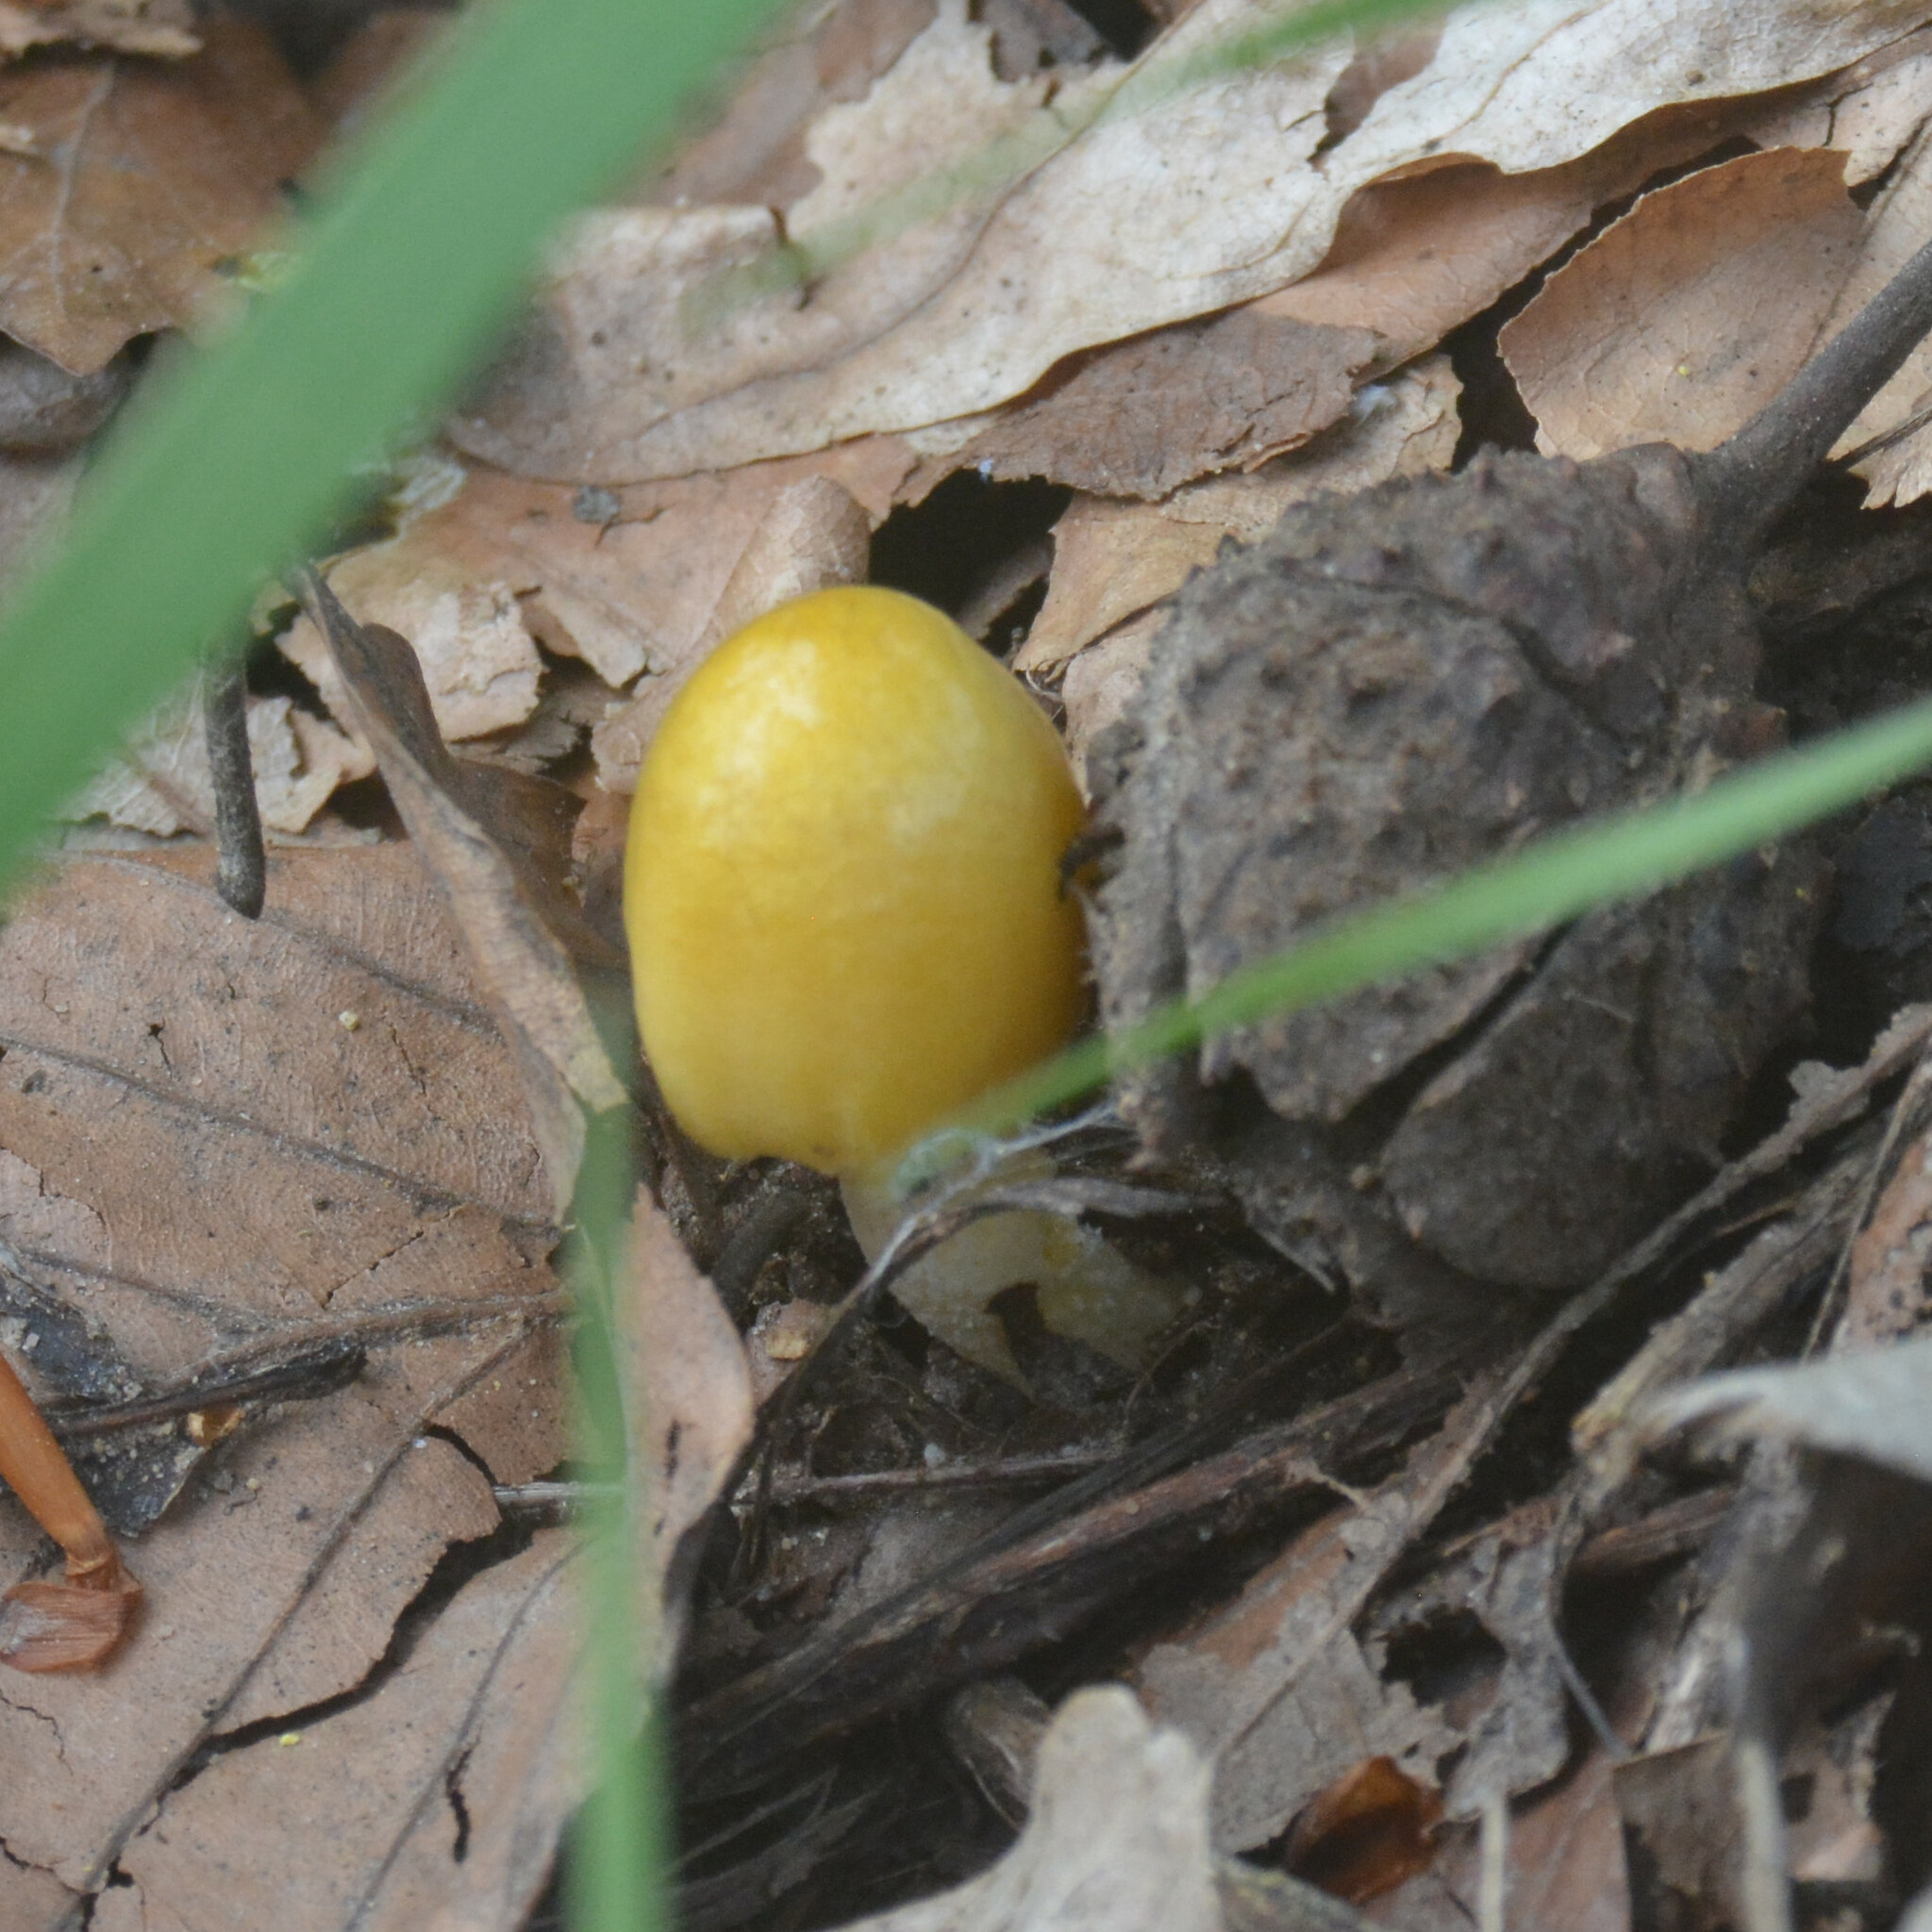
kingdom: Fungi
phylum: Basidiomycota
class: Agaricomycetes
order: Agaricales
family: Bolbitiaceae
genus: Bolbitius
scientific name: Bolbitius titubans
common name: Yellow fieldcap
